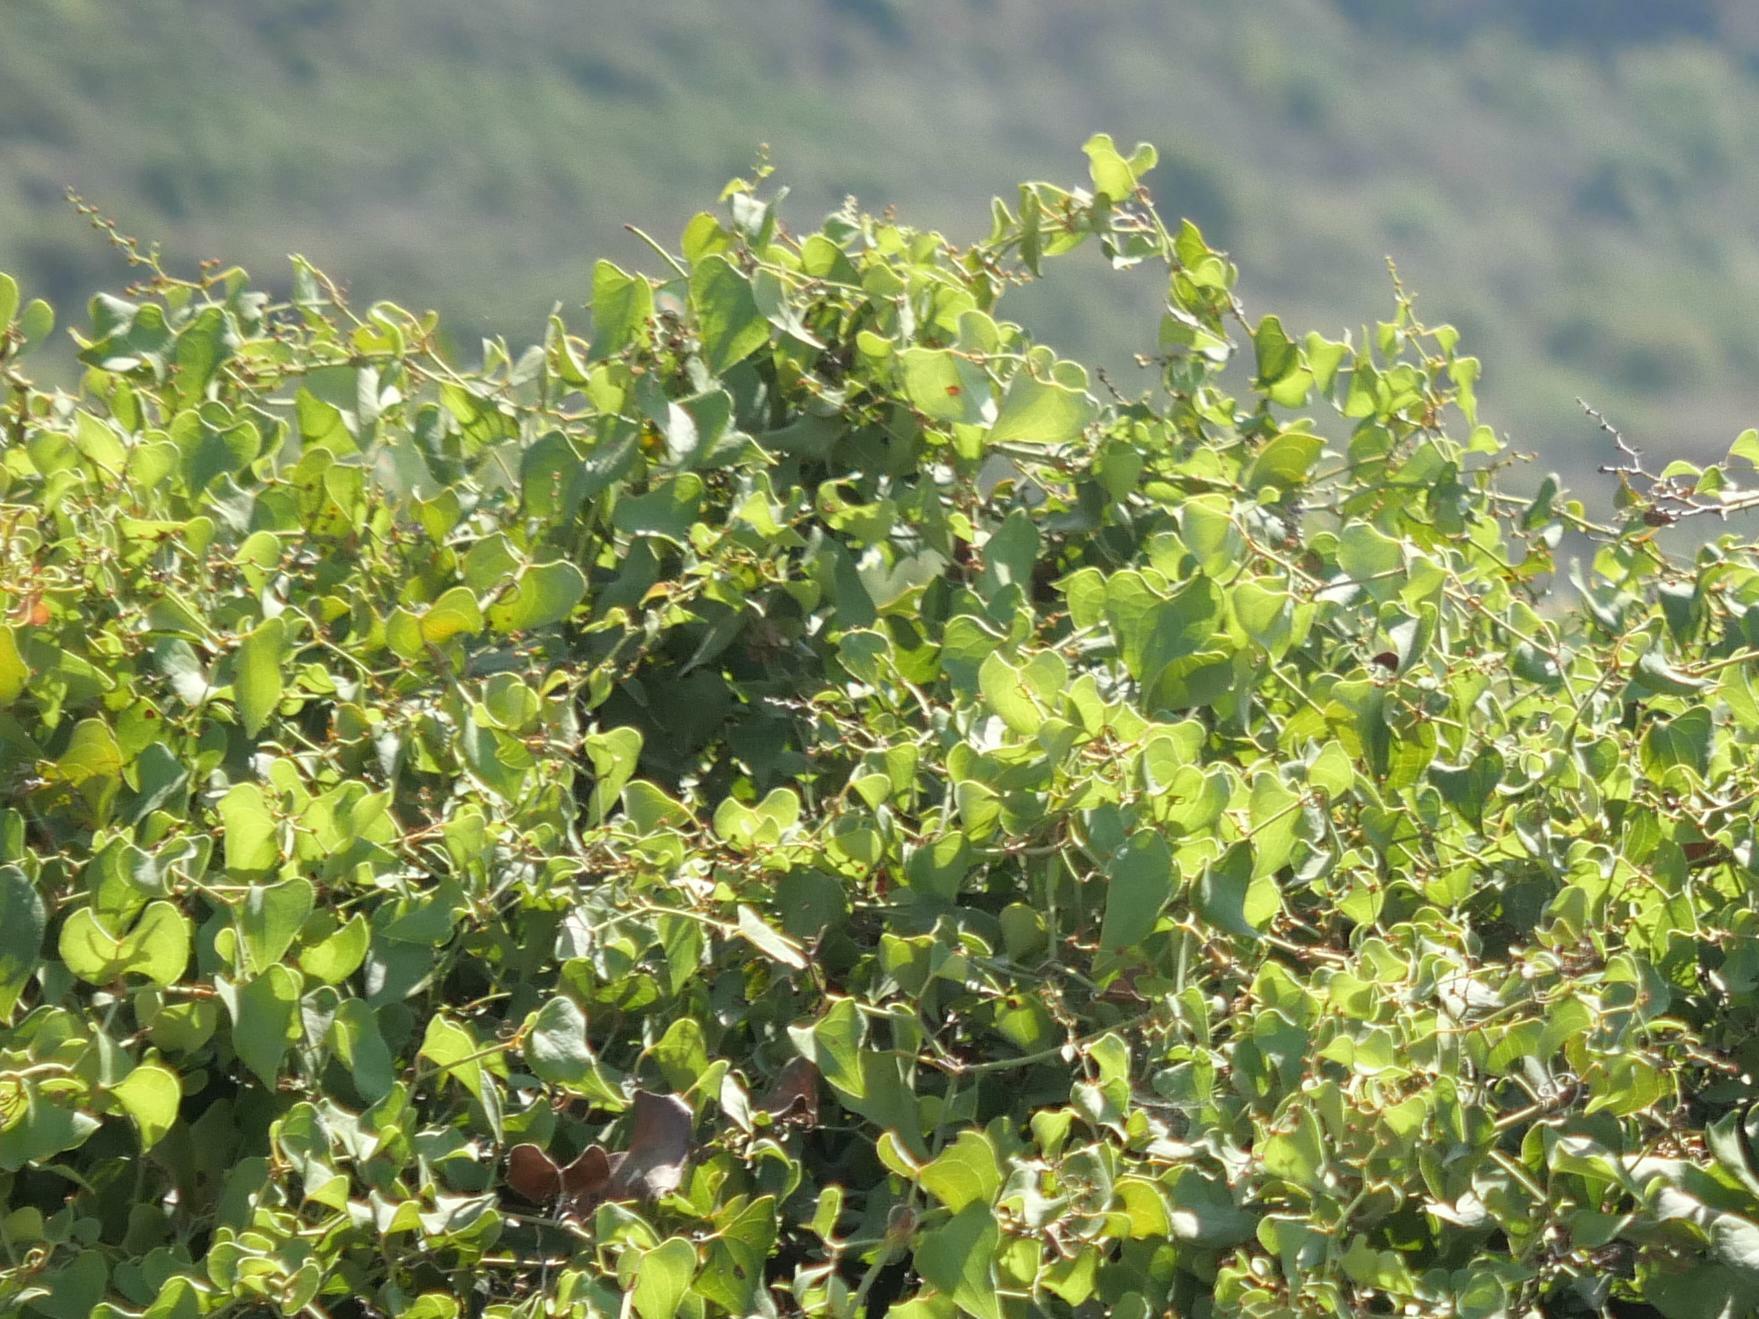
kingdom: Plantae
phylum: Tracheophyta
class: Liliopsida
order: Liliales
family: Smilacaceae
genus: Smilax
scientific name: Smilax aspera
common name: Common smilax
